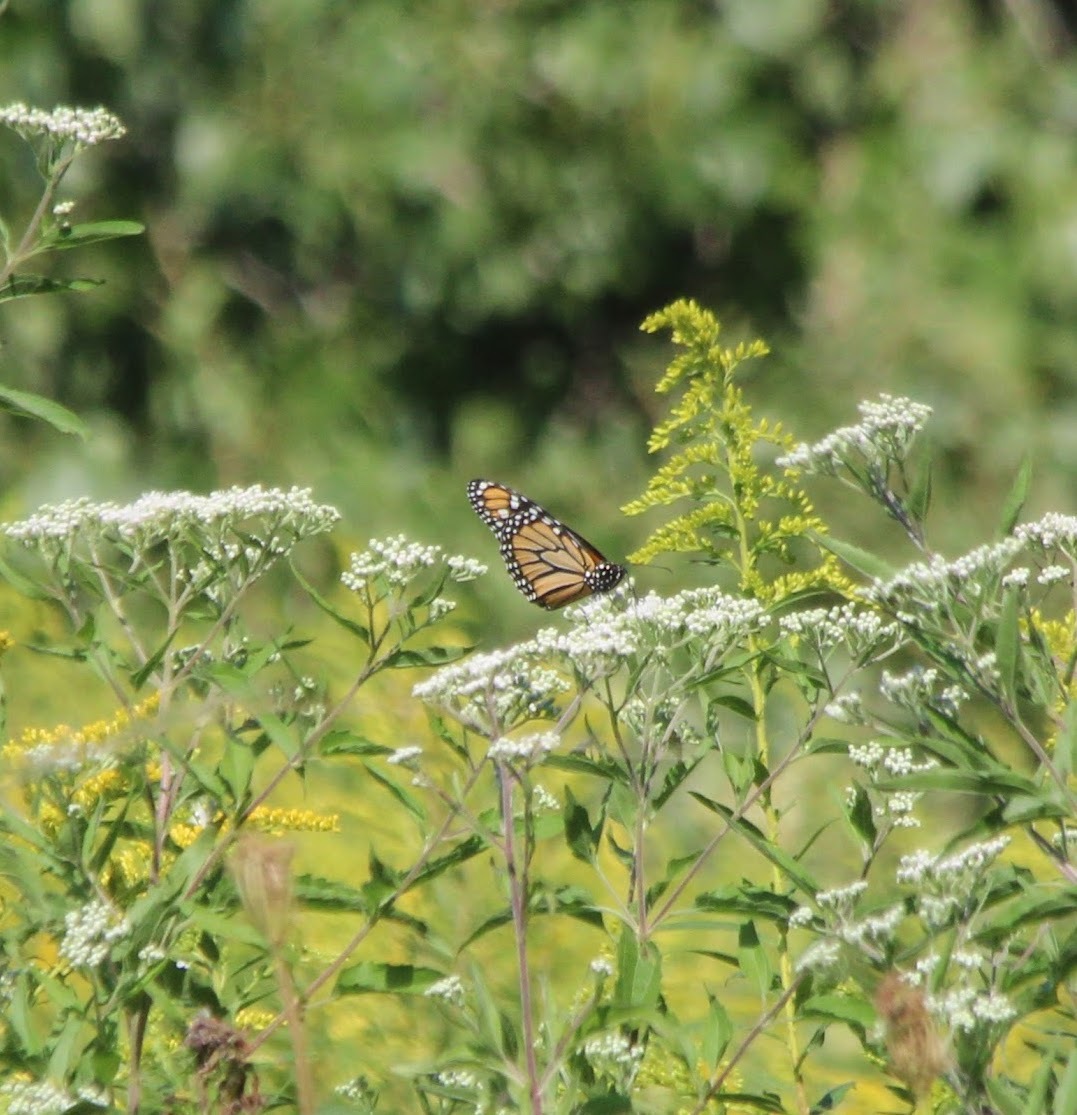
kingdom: Animalia
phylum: Arthropoda
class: Insecta
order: Lepidoptera
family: Nymphalidae
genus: Danaus
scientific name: Danaus plexippus
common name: Monarch
